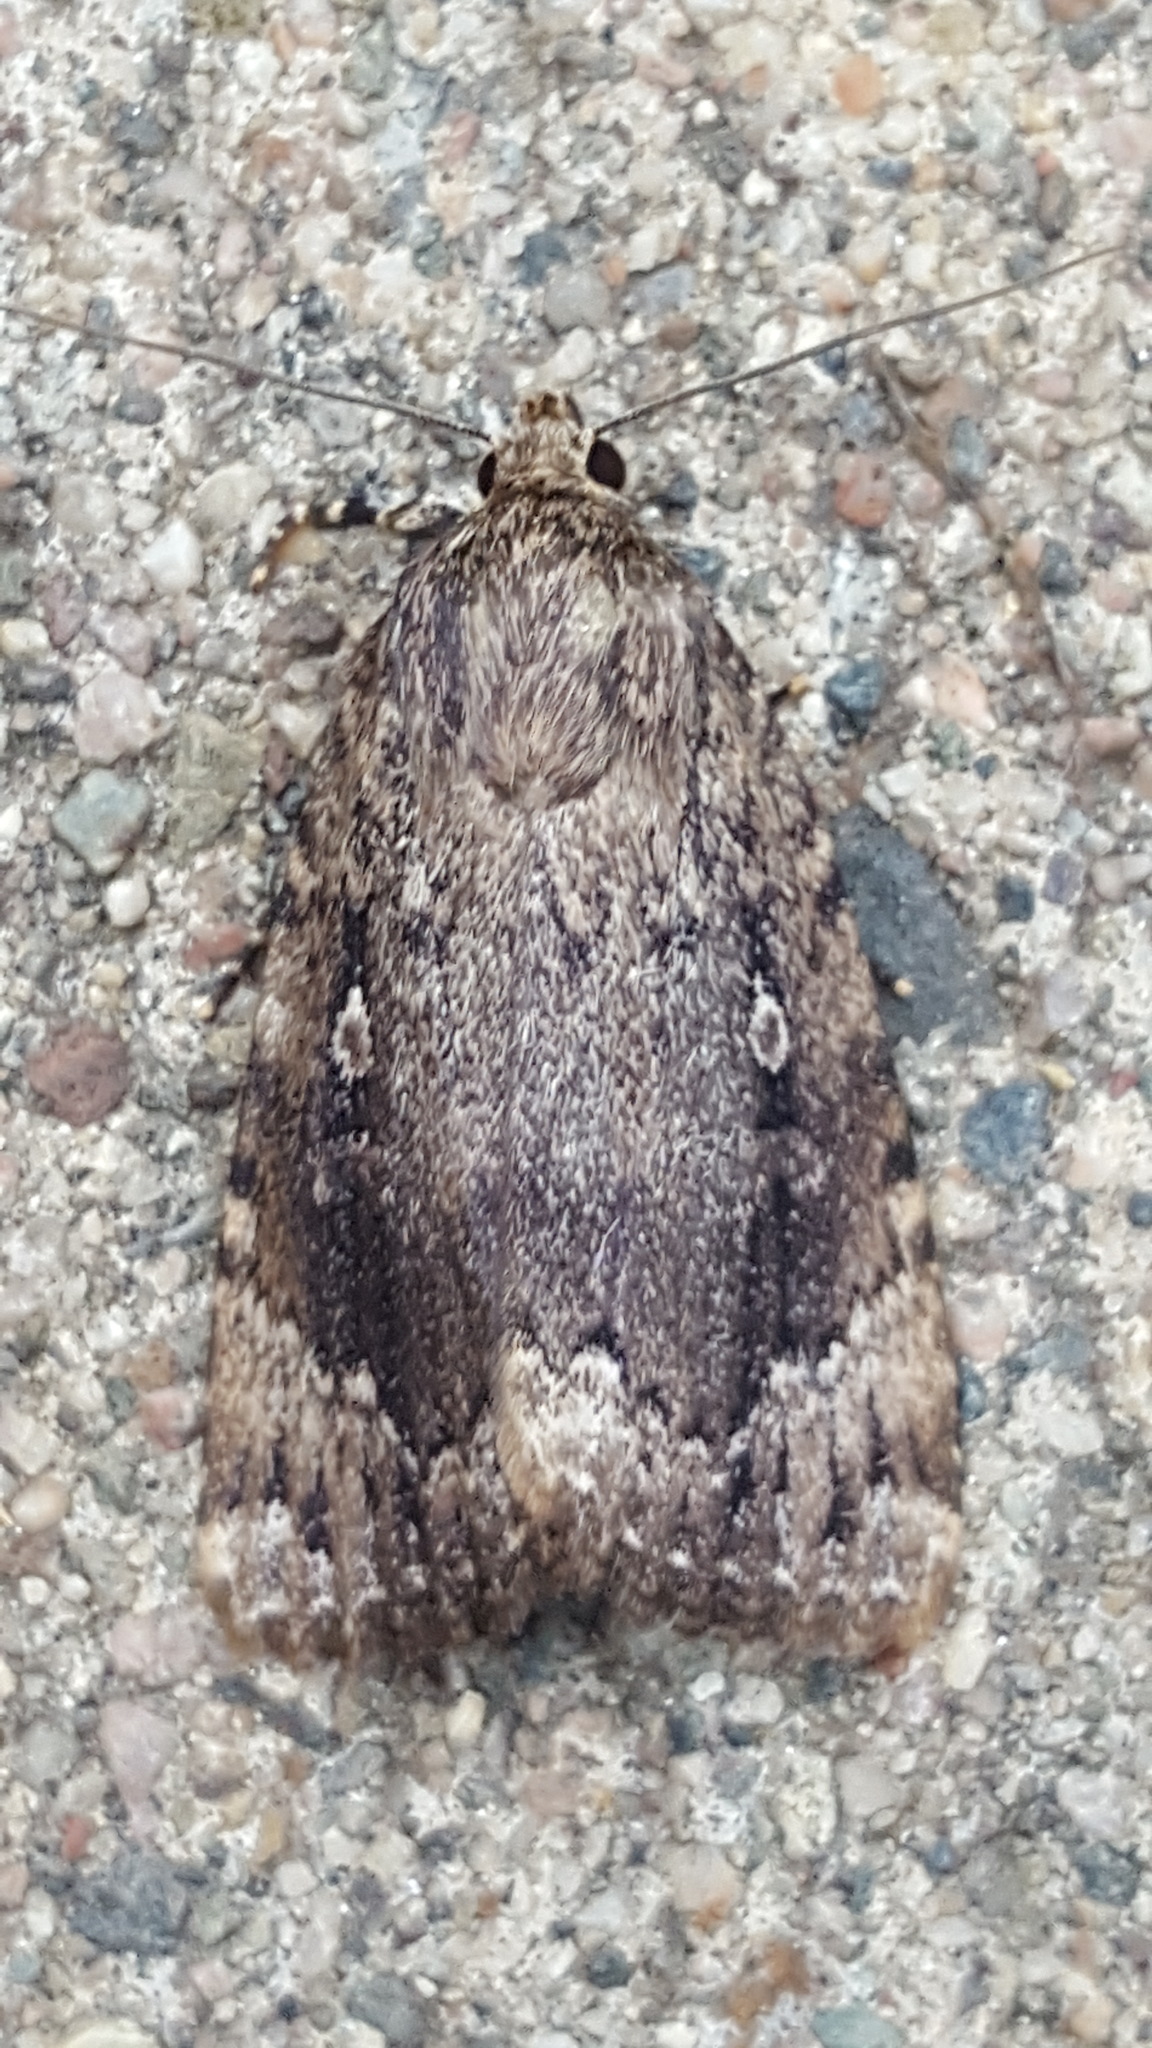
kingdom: Animalia
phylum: Arthropoda
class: Insecta
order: Lepidoptera
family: Noctuidae
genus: Amphipyra
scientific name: Amphipyra pyramidoides
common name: American copper underwing
